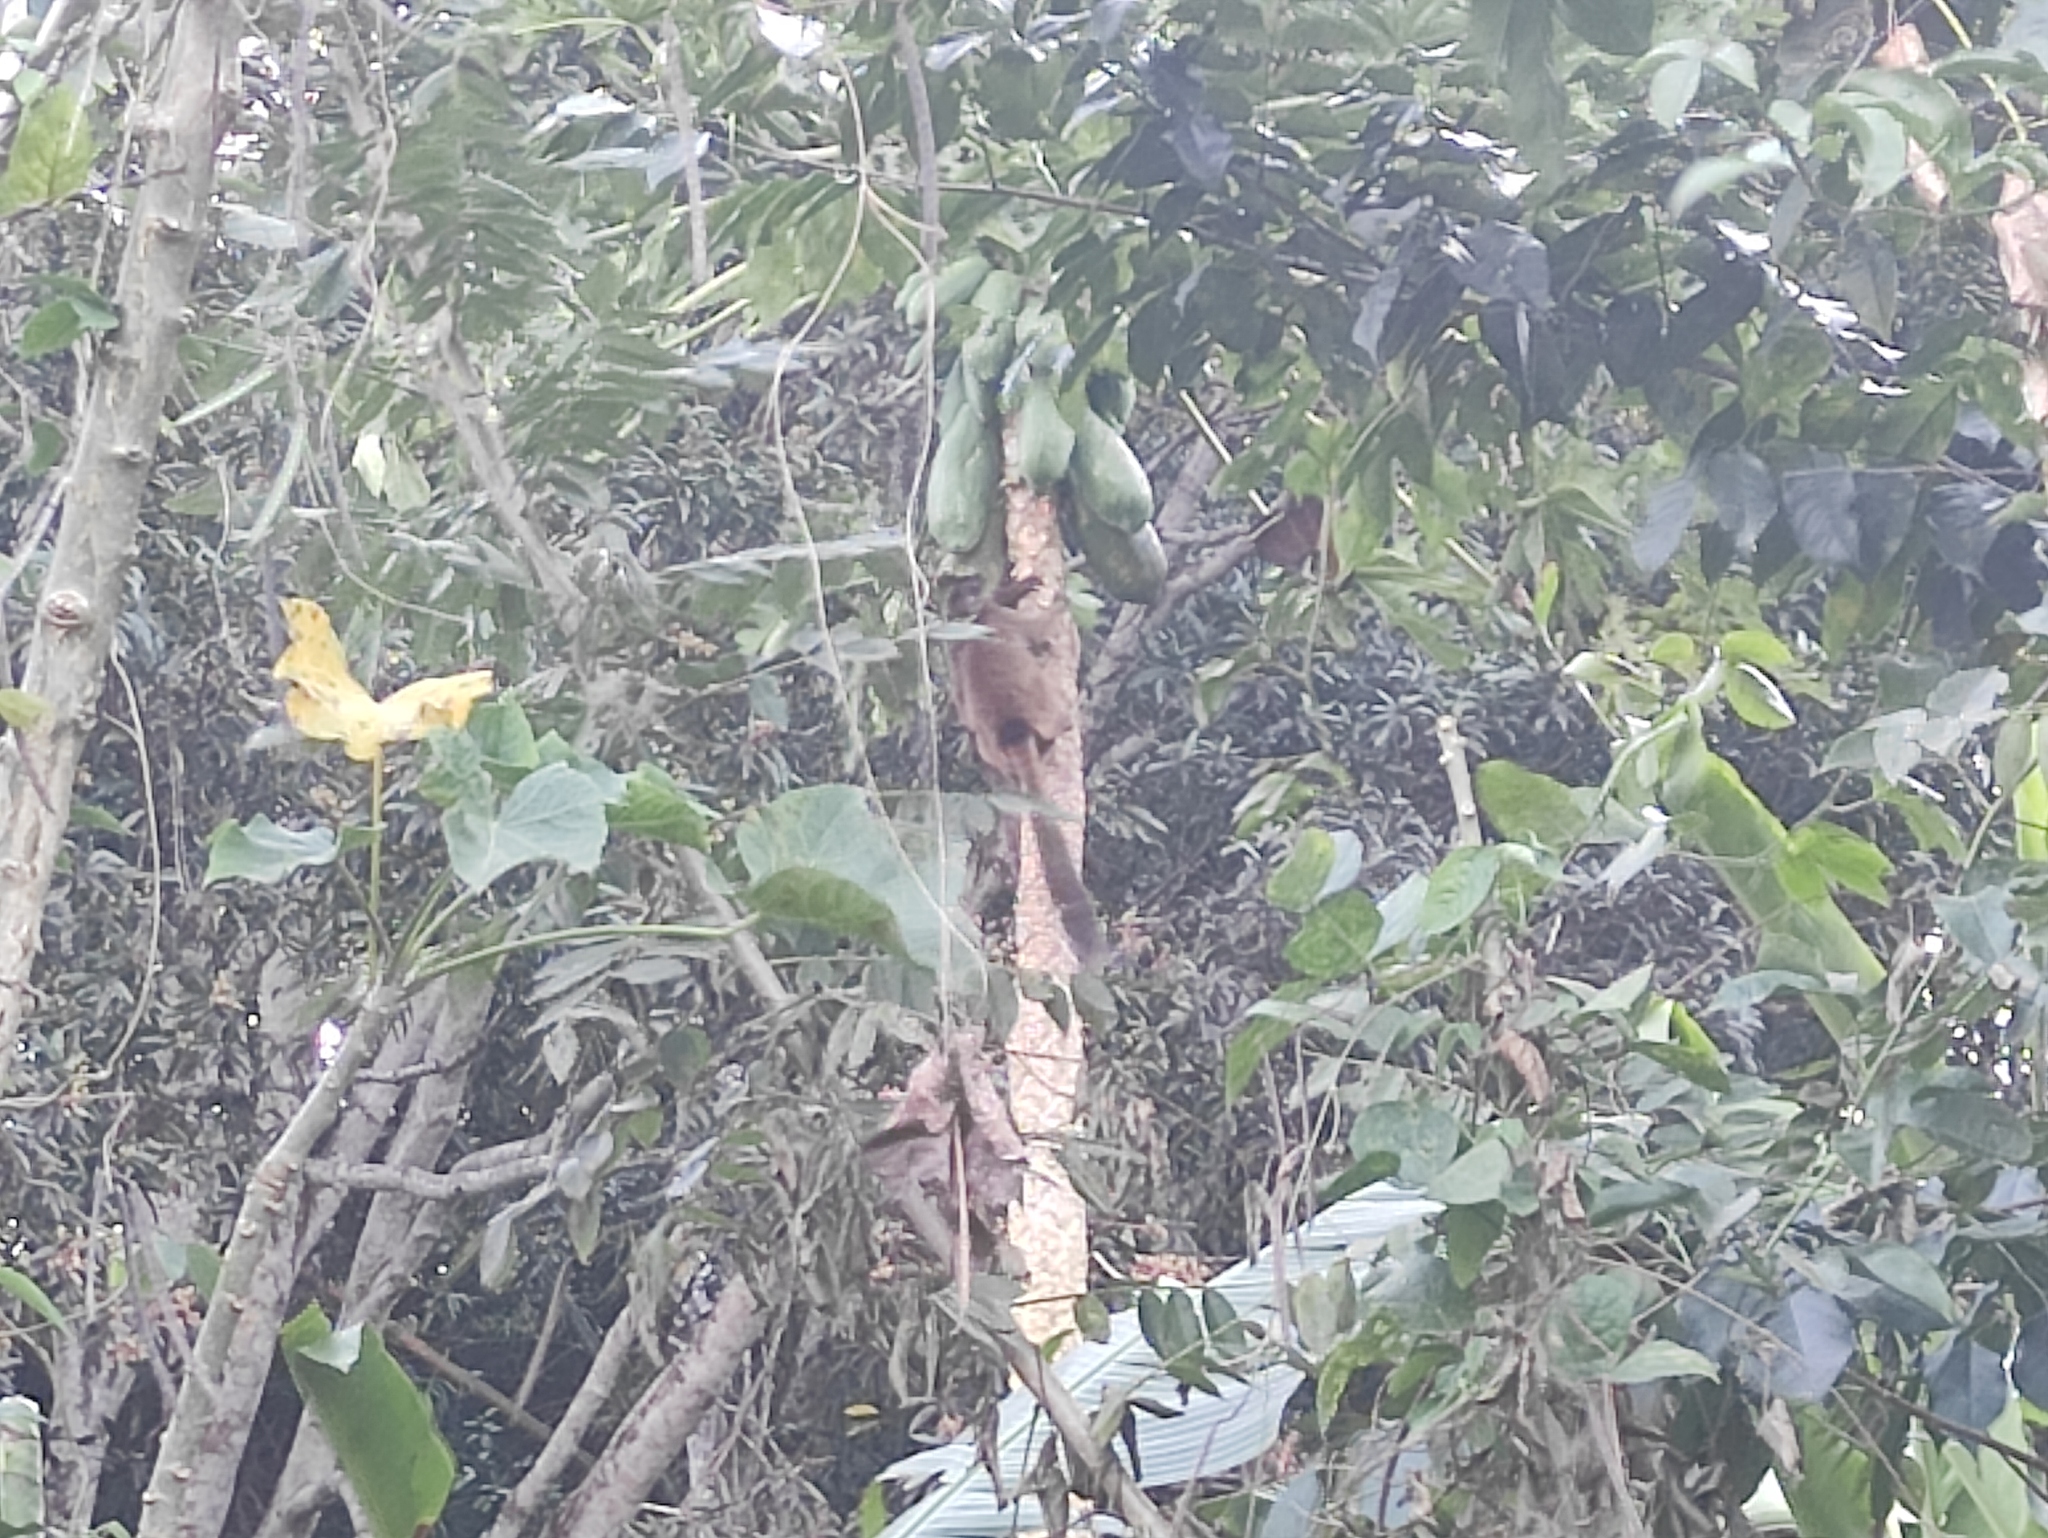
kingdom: Animalia
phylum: Chordata
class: Mammalia
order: Primates
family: Lemuridae
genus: Eulemur
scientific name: Eulemur fulvus
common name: Brown lemur
